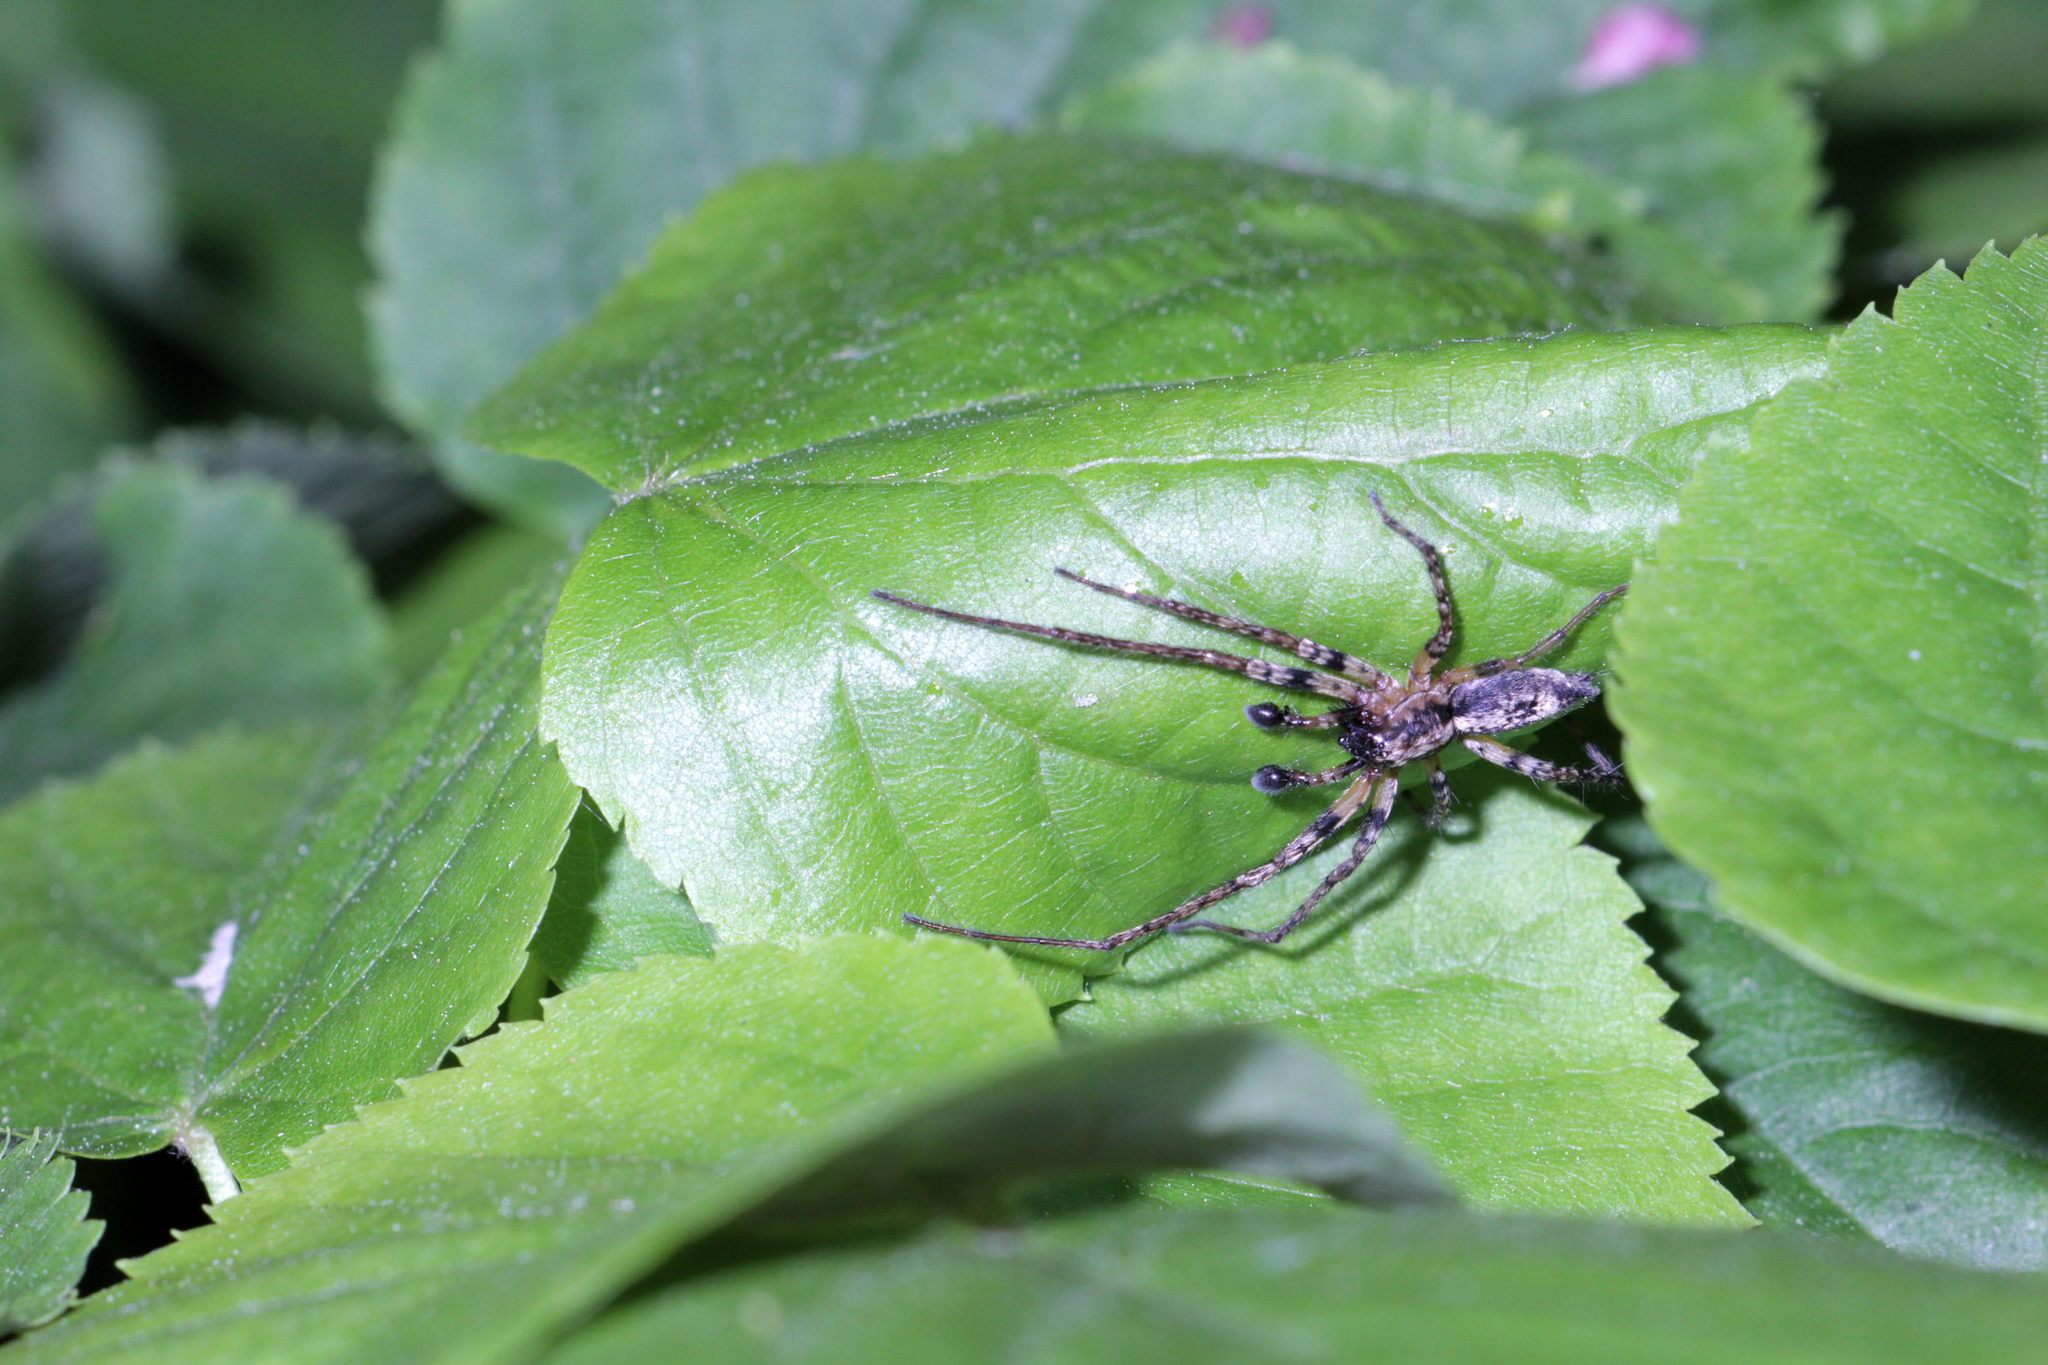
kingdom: Animalia
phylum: Arthropoda
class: Arachnida
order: Araneae
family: Anyphaenidae
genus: Anyphaena
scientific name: Anyphaena accentuata
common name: Buzzing spider
